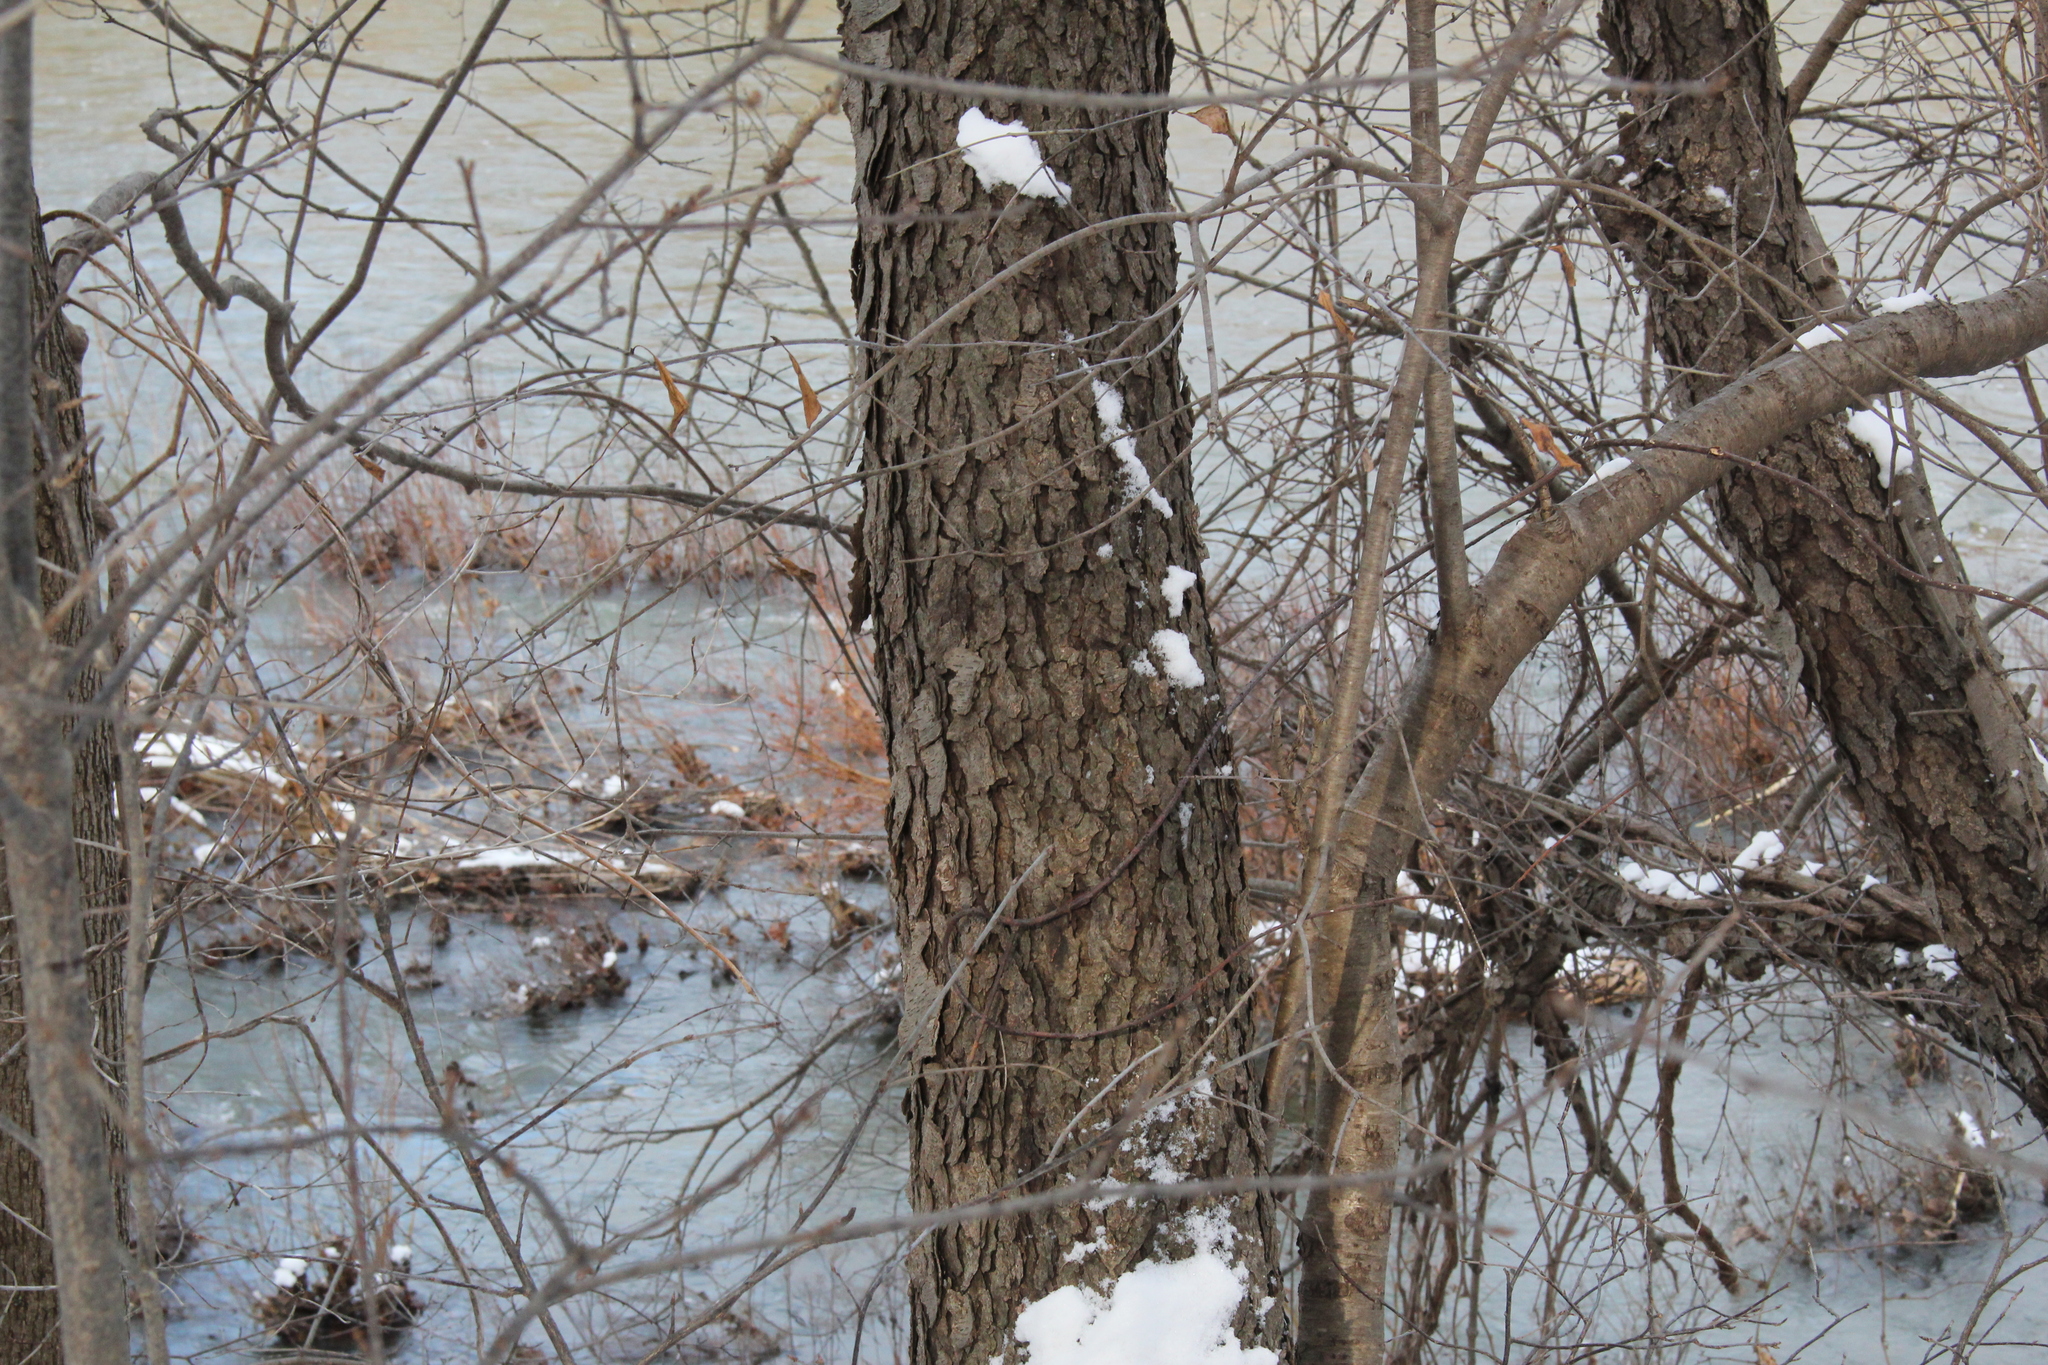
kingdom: Plantae
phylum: Tracheophyta
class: Magnoliopsida
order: Rosales
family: Rosaceae
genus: Prunus
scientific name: Prunus serotina
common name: Black cherry
